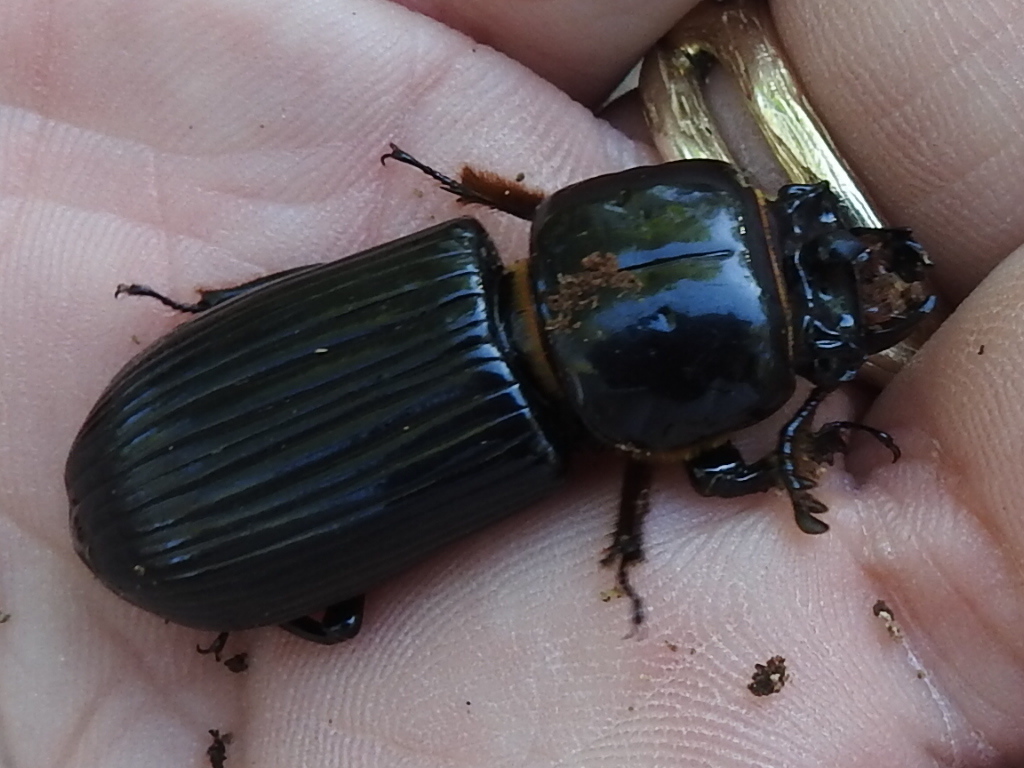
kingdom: Animalia
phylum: Arthropoda
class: Insecta
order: Coleoptera
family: Passalidae
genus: Odontotaenius
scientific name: Odontotaenius disjunctus
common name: Patent leather beetle
